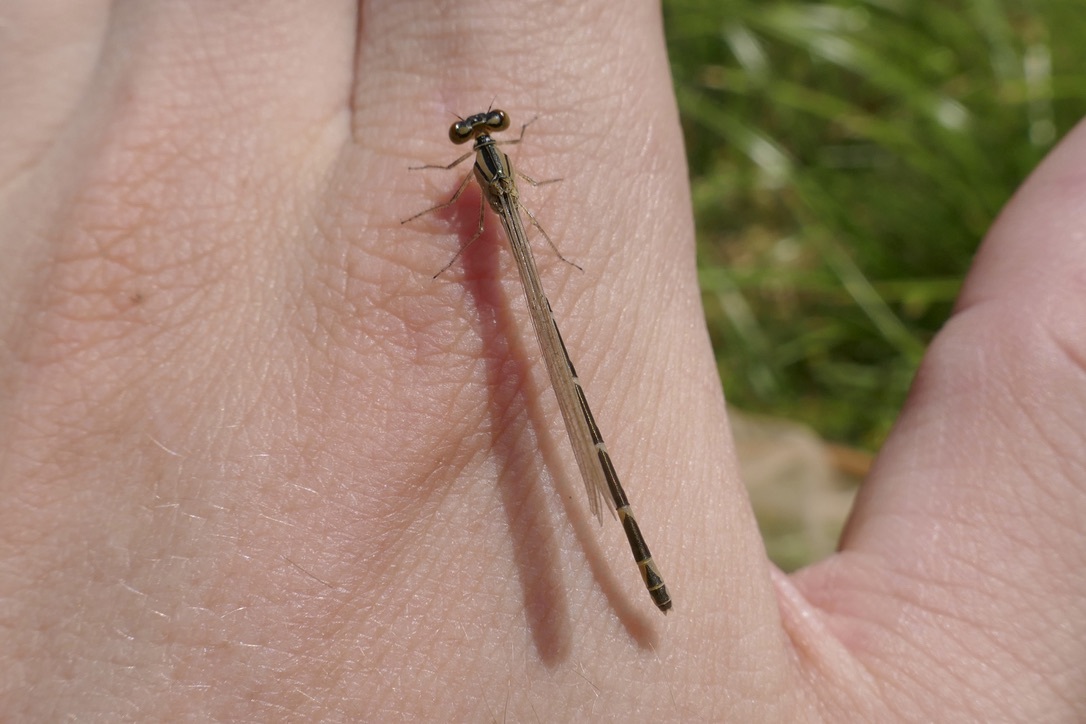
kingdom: Animalia
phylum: Arthropoda
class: Insecta
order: Odonata
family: Coenagrionidae
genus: Enallagma
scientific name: Enallagma cyathigerum
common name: Common blue damselfly
